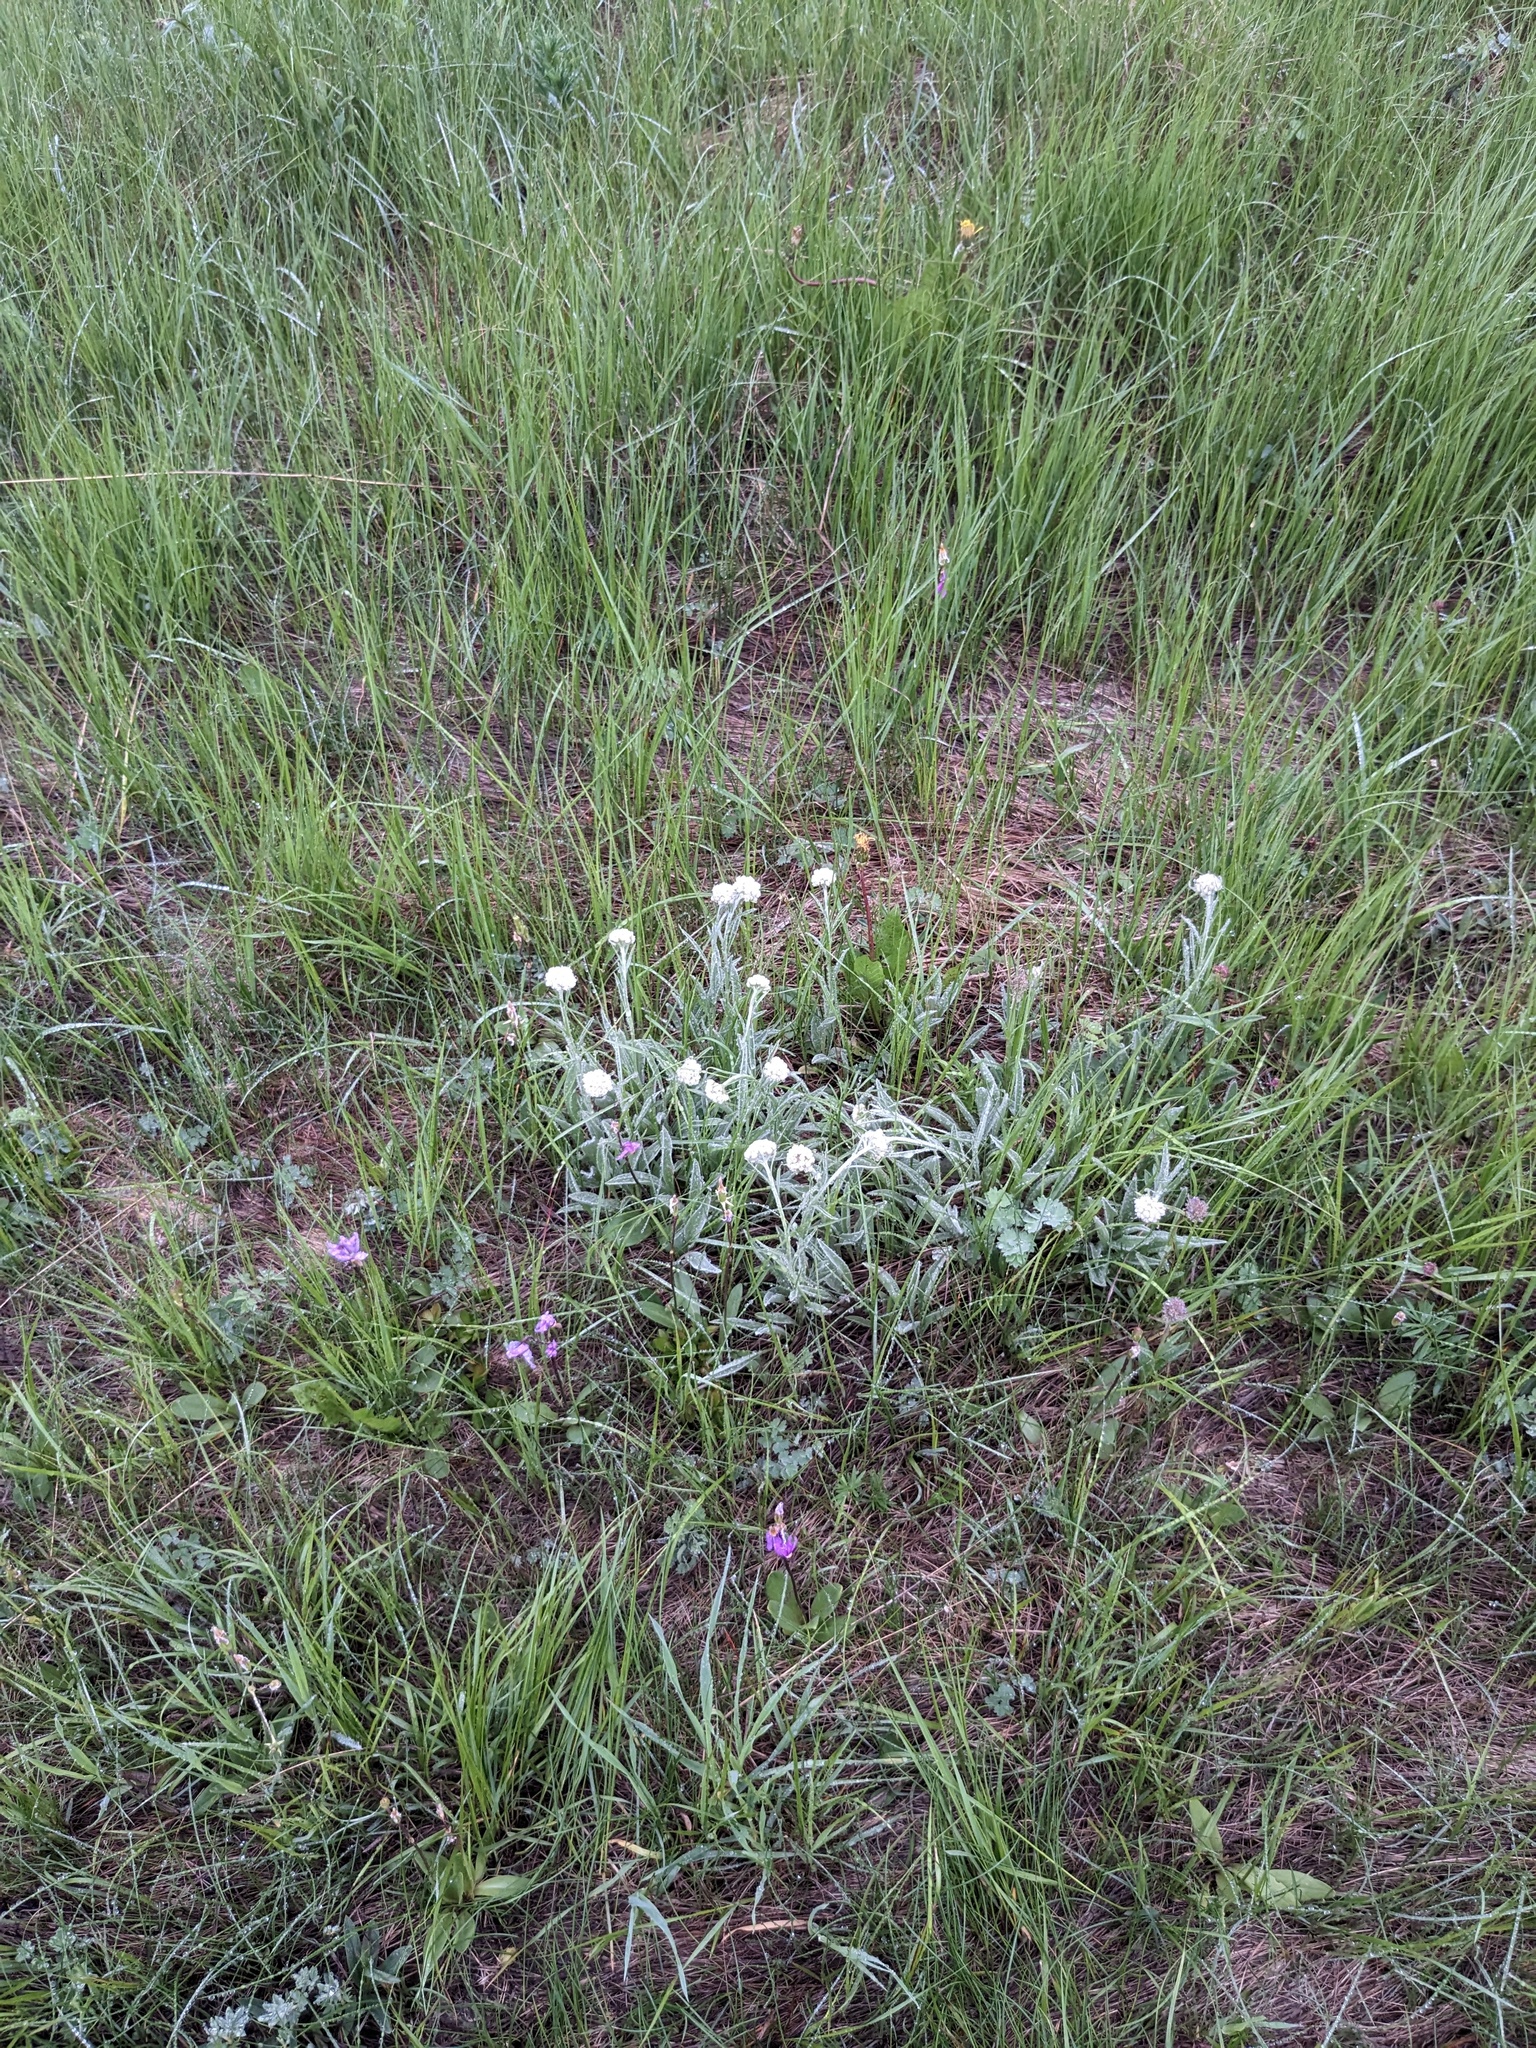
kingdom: Plantae
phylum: Tracheophyta
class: Magnoliopsida
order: Asterales
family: Asteraceae
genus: Antennaria
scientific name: Antennaria anaphaloides
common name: Tall pussytoes
